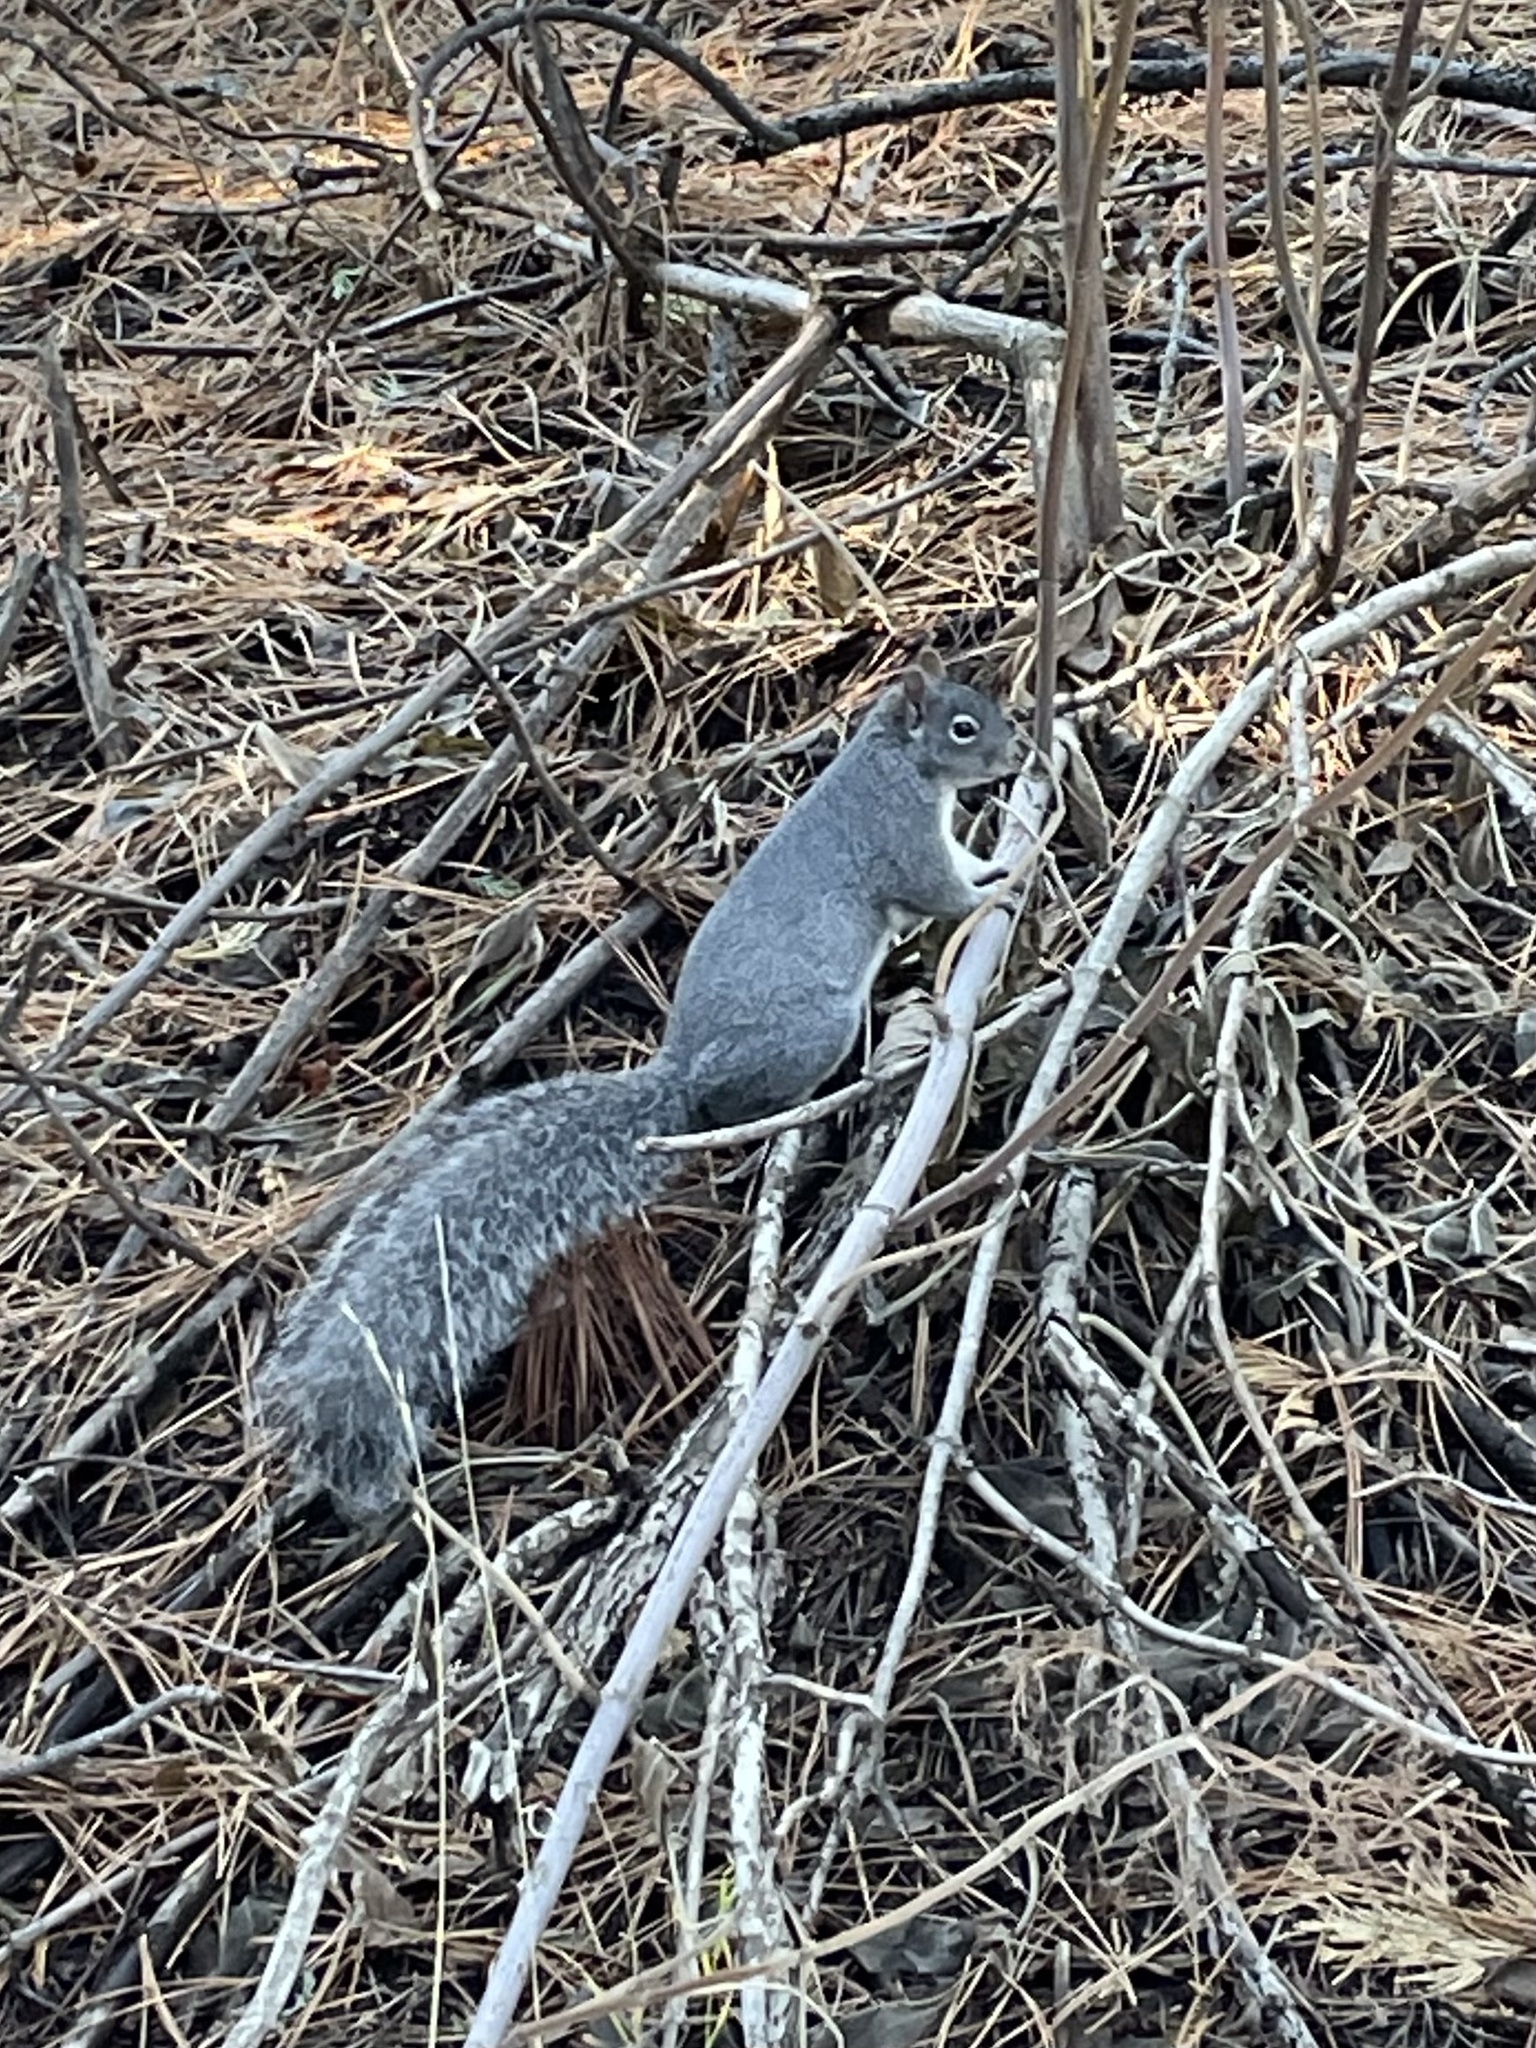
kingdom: Animalia
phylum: Chordata
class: Mammalia
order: Rodentia
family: Sciuridae
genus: Sciurus
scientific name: Sciurus griseus
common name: Western gray squirrel
